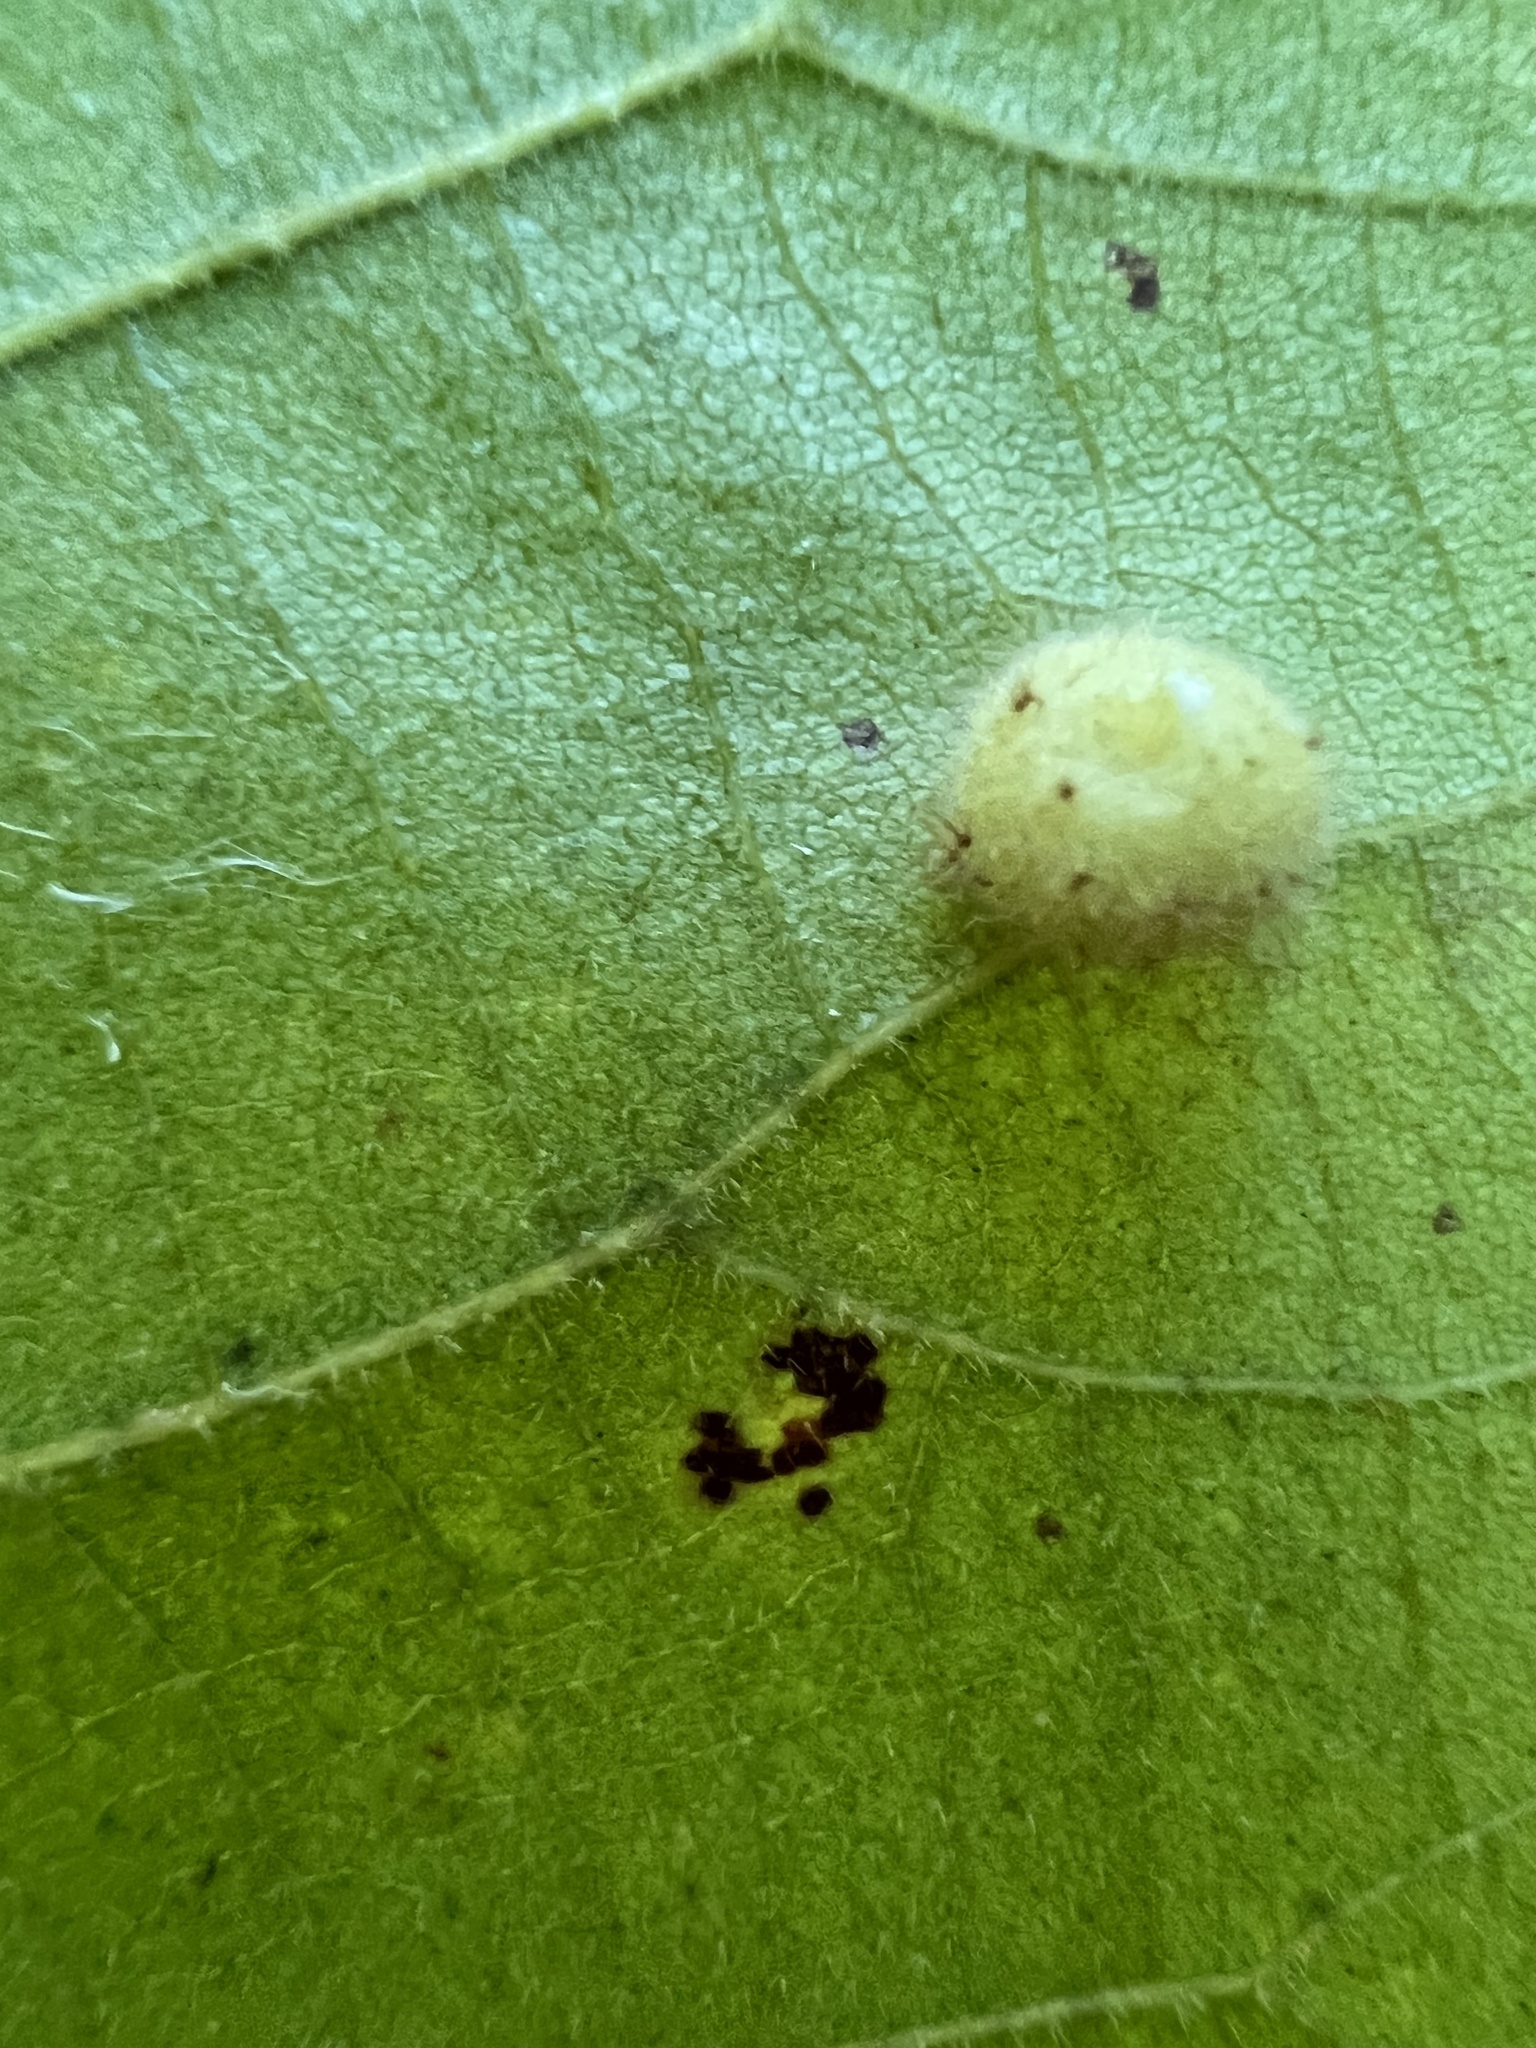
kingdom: Animalia
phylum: Arthropoda
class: Insecta
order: Diptera
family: Cecidomyiidae
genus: Caryomyia
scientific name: Caryomyia thompsoni
